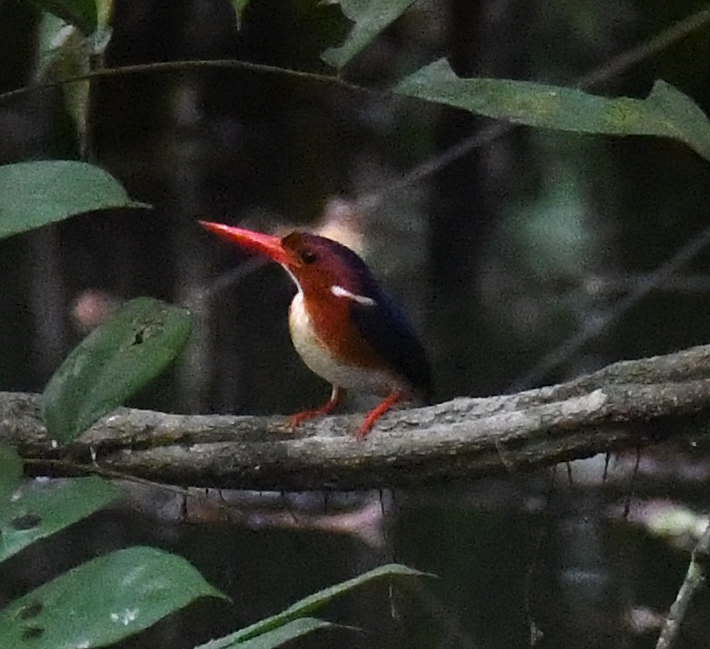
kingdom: Animalia
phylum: Chordata
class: Aves
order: Coraciiformes
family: Alcedinidae
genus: Corythornis
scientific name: Corythornis leucogaster
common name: White-bellied kingfisher
